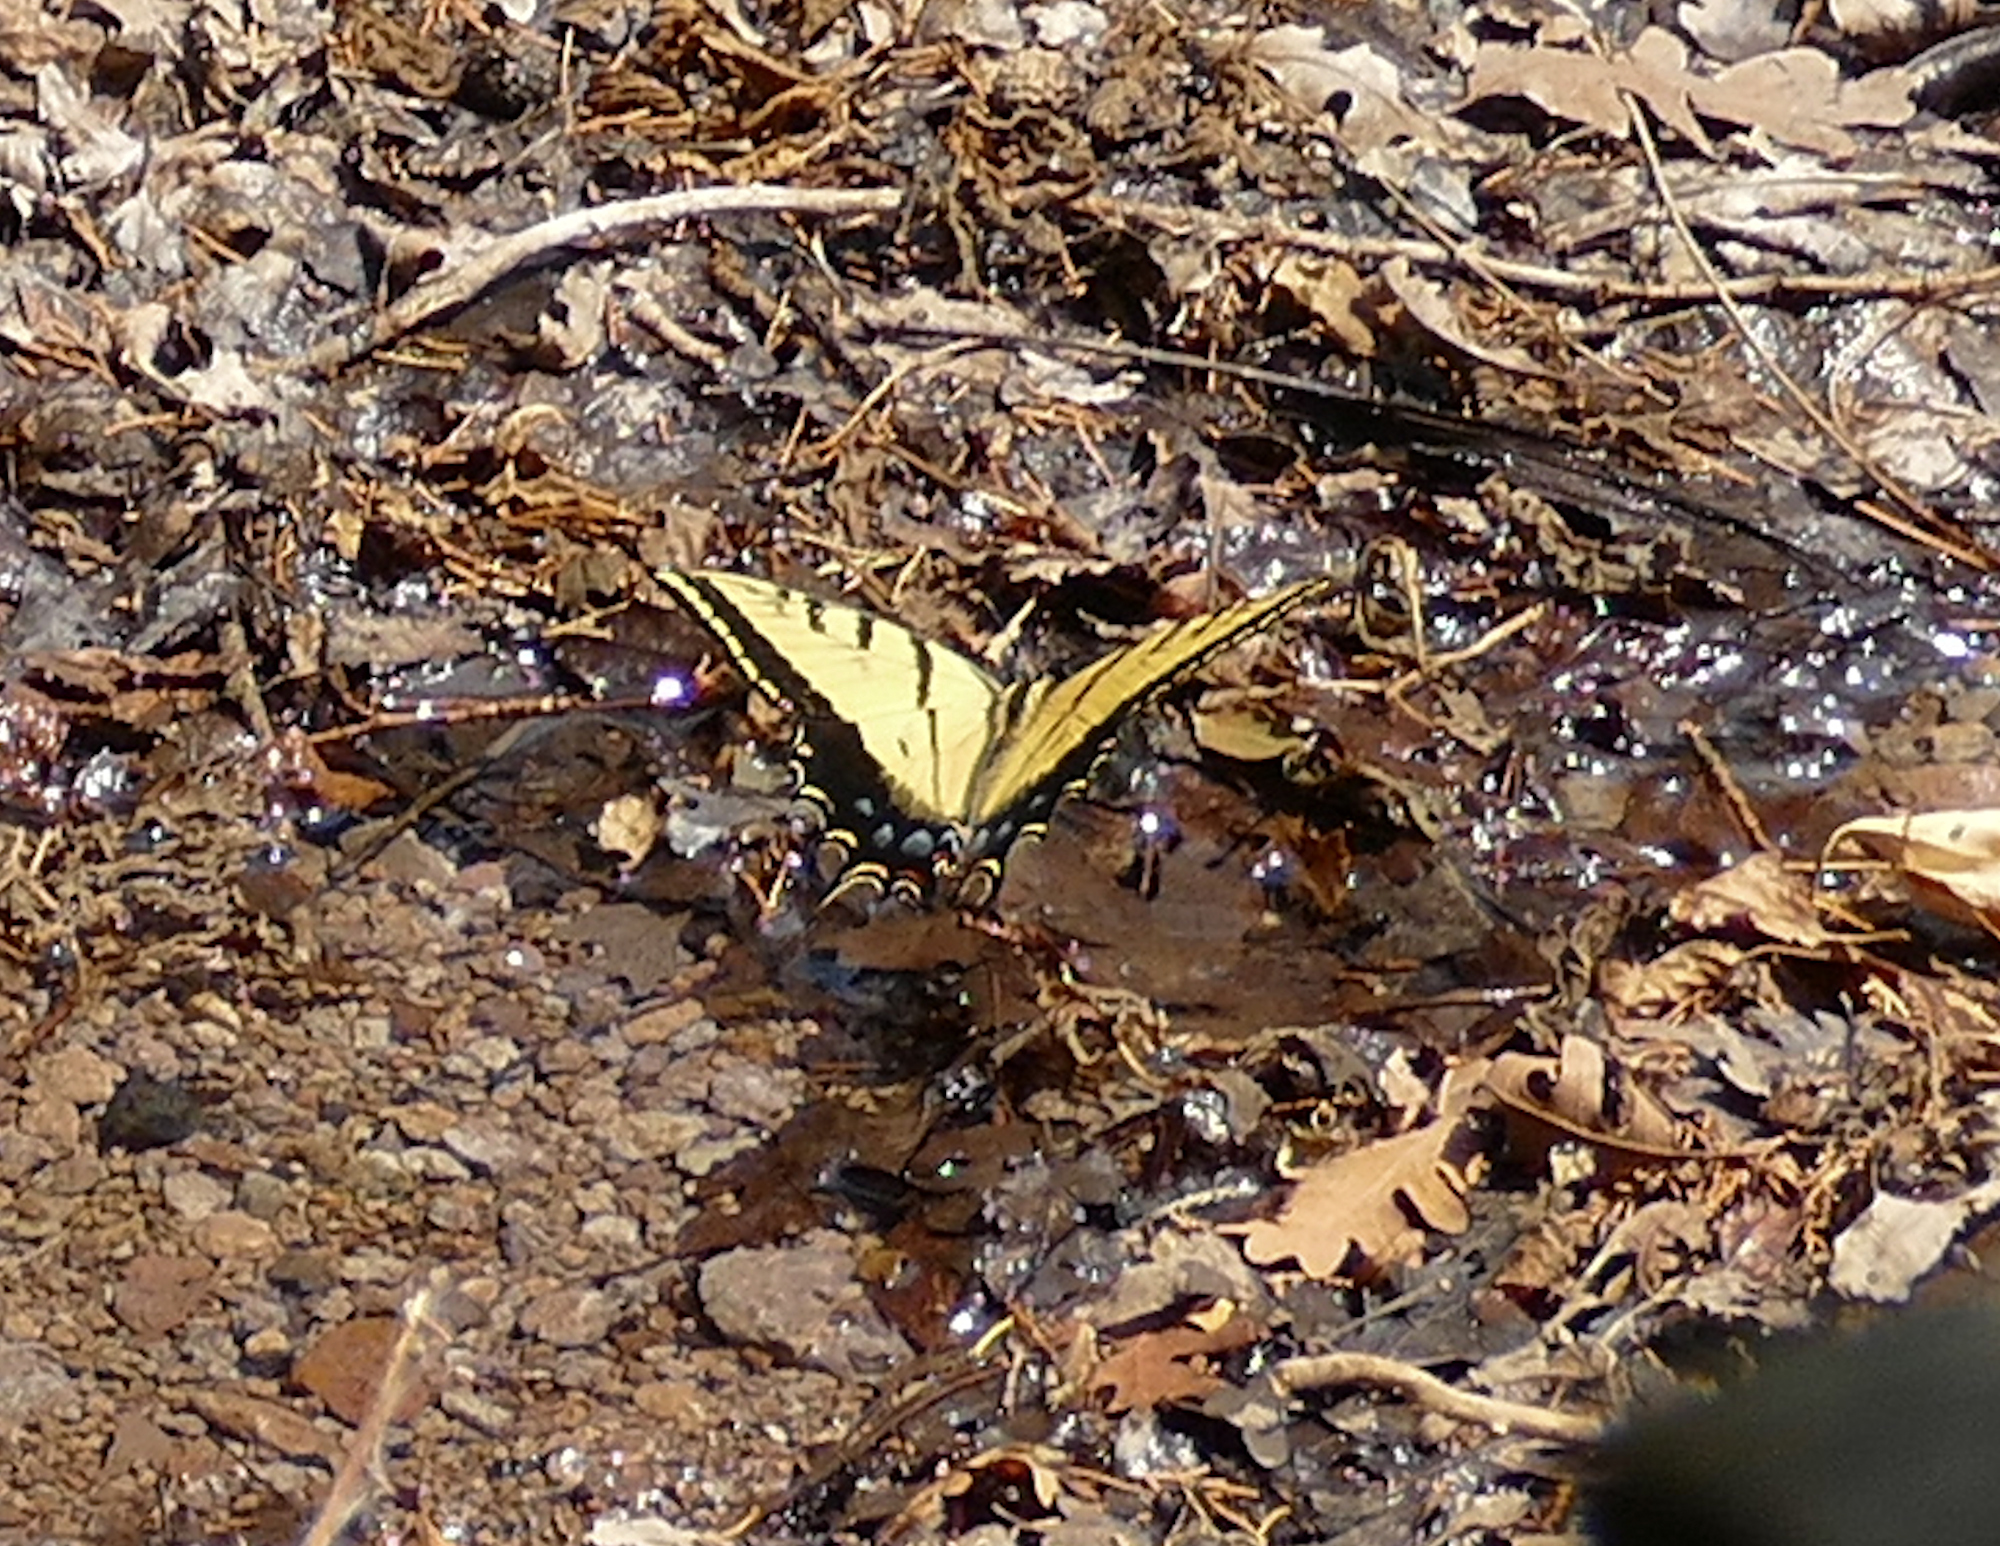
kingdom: Animalia
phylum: Arthropoda
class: Insecta
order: Lepidoptera
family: Papilionidae
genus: Papilio
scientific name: Papilio multicaudata
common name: Two-tailed tiger swallowtail
